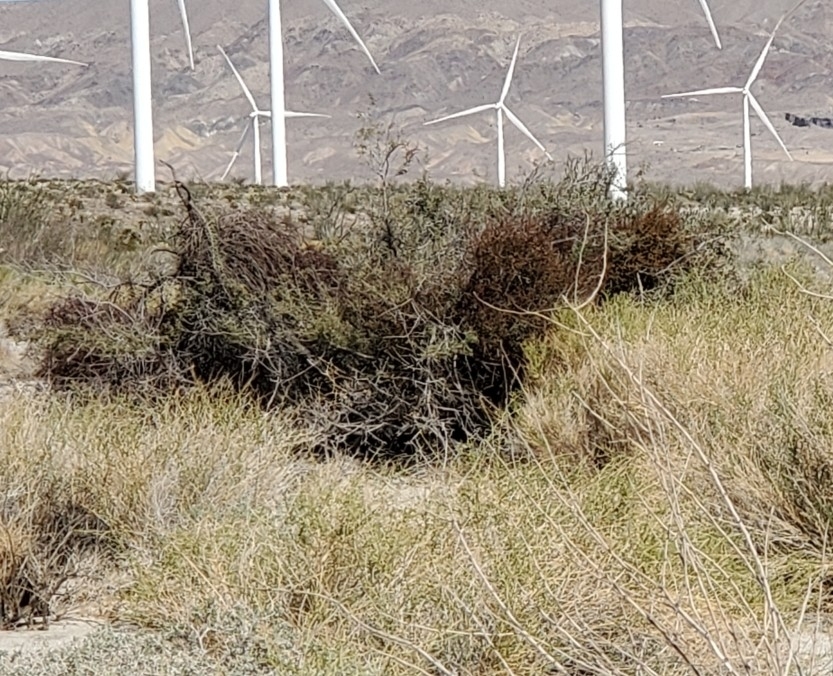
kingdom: Plantae
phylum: Tracheophyta
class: Magnoliopsida
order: Santalales
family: Viscaceae
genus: Phoradendron
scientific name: Phoradendron californicum
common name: Acacia mistletoe
